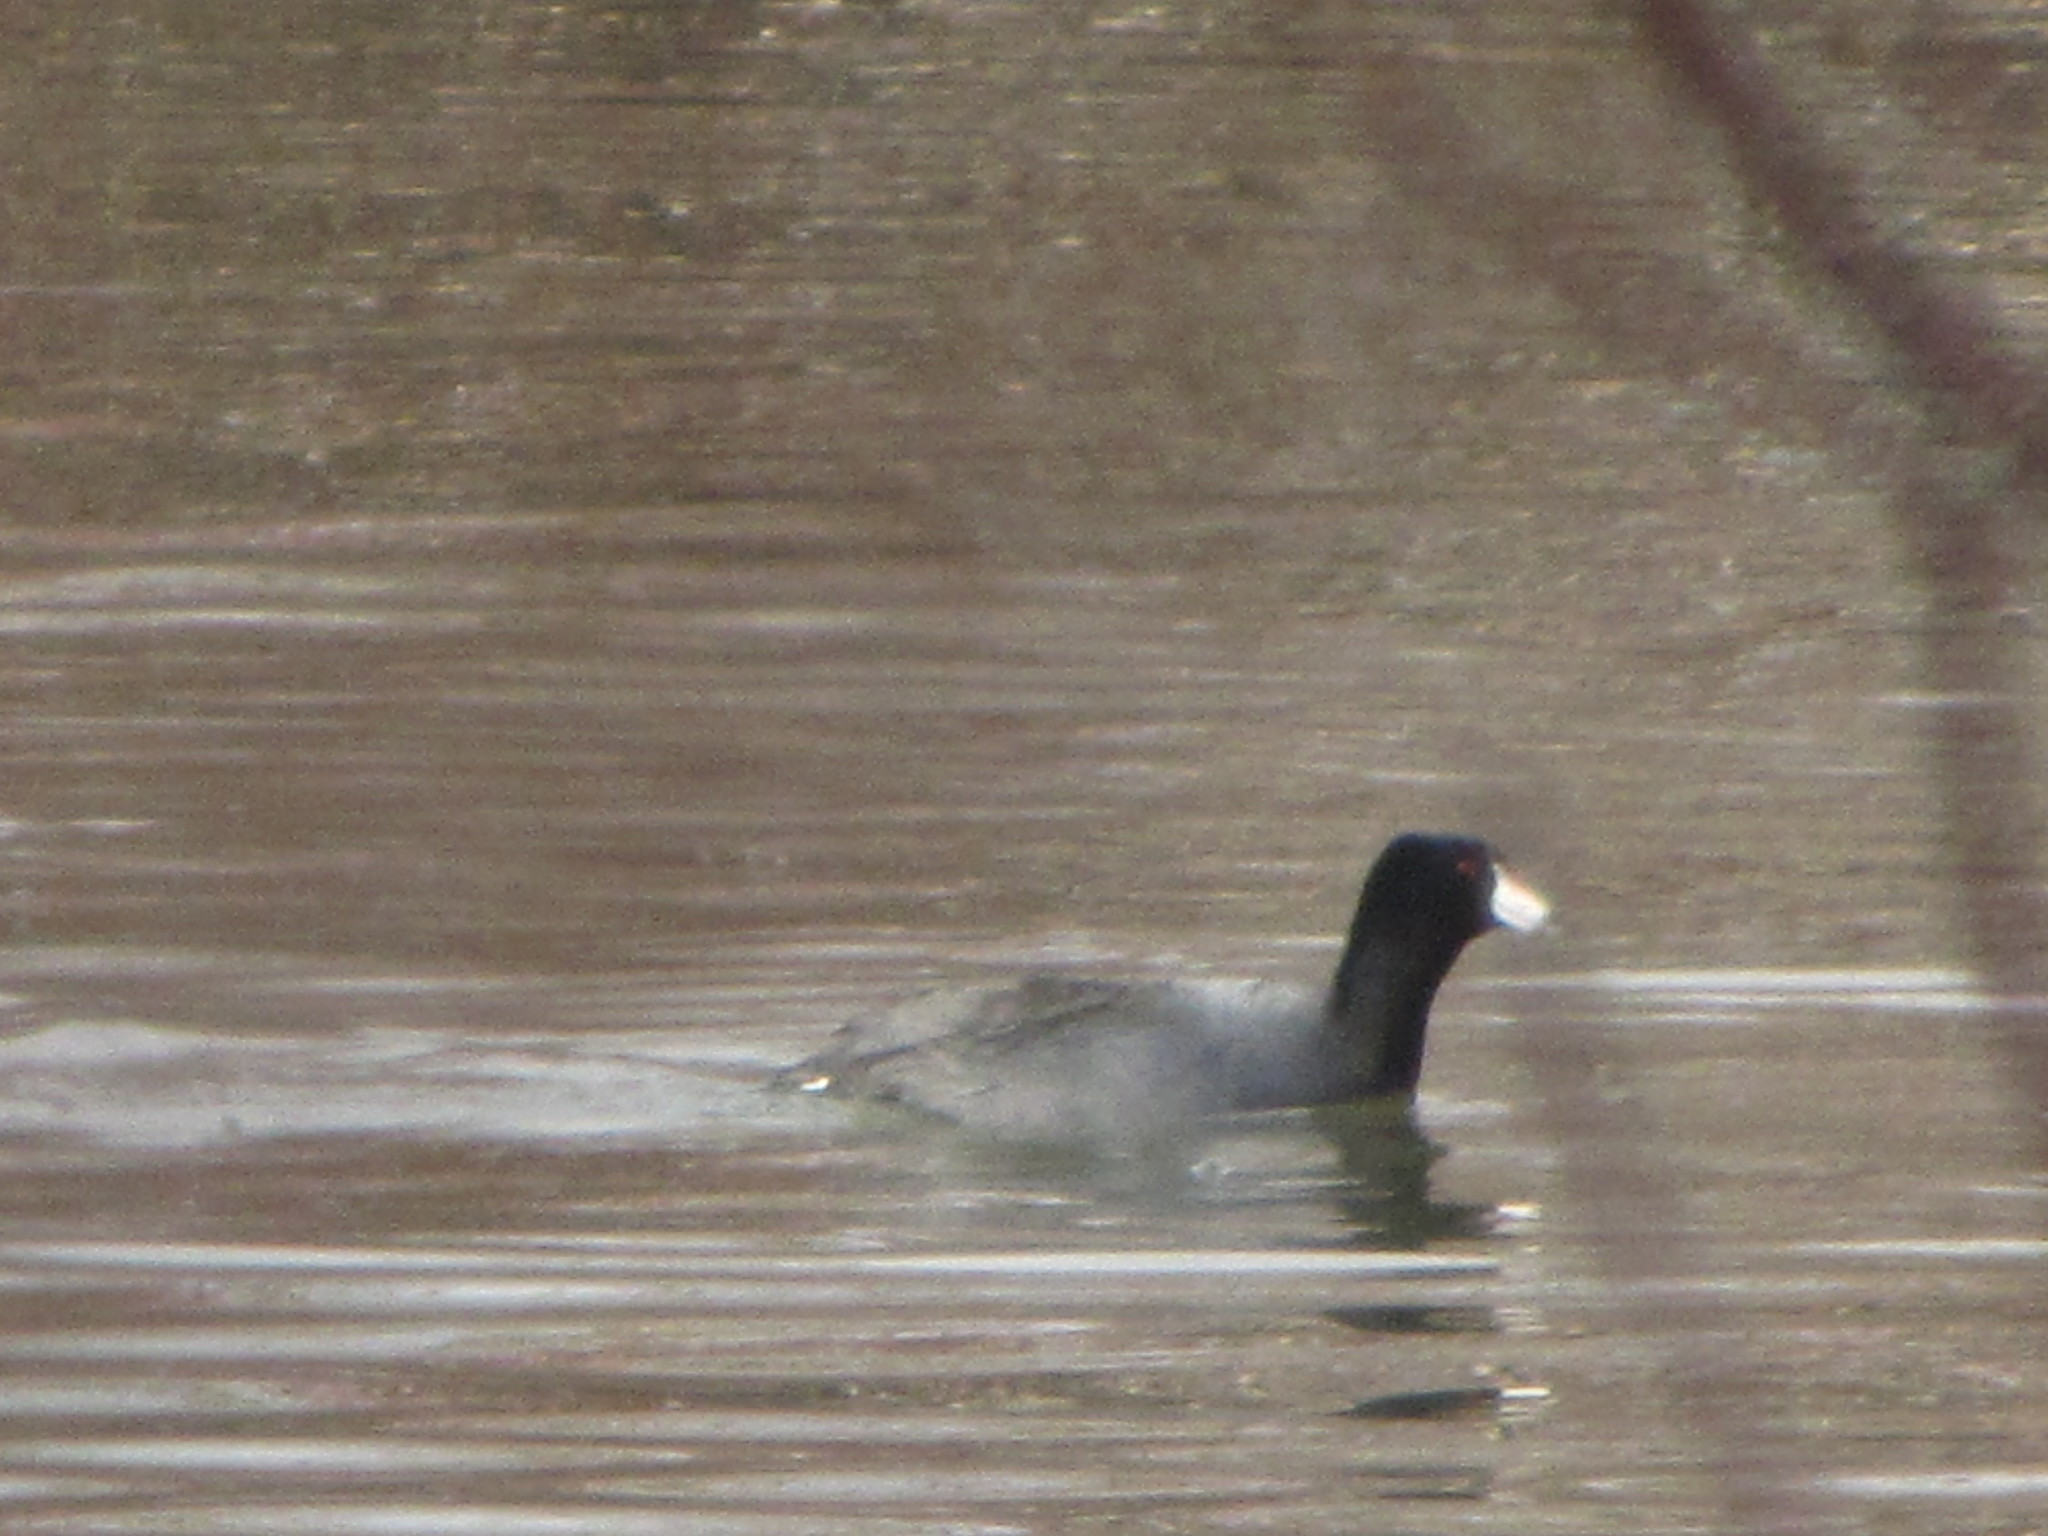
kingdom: Animalia
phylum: Chordata
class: Aves
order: Gruiformes
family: Rallidae
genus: Fulica
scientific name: Fulica americana
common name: American coot
